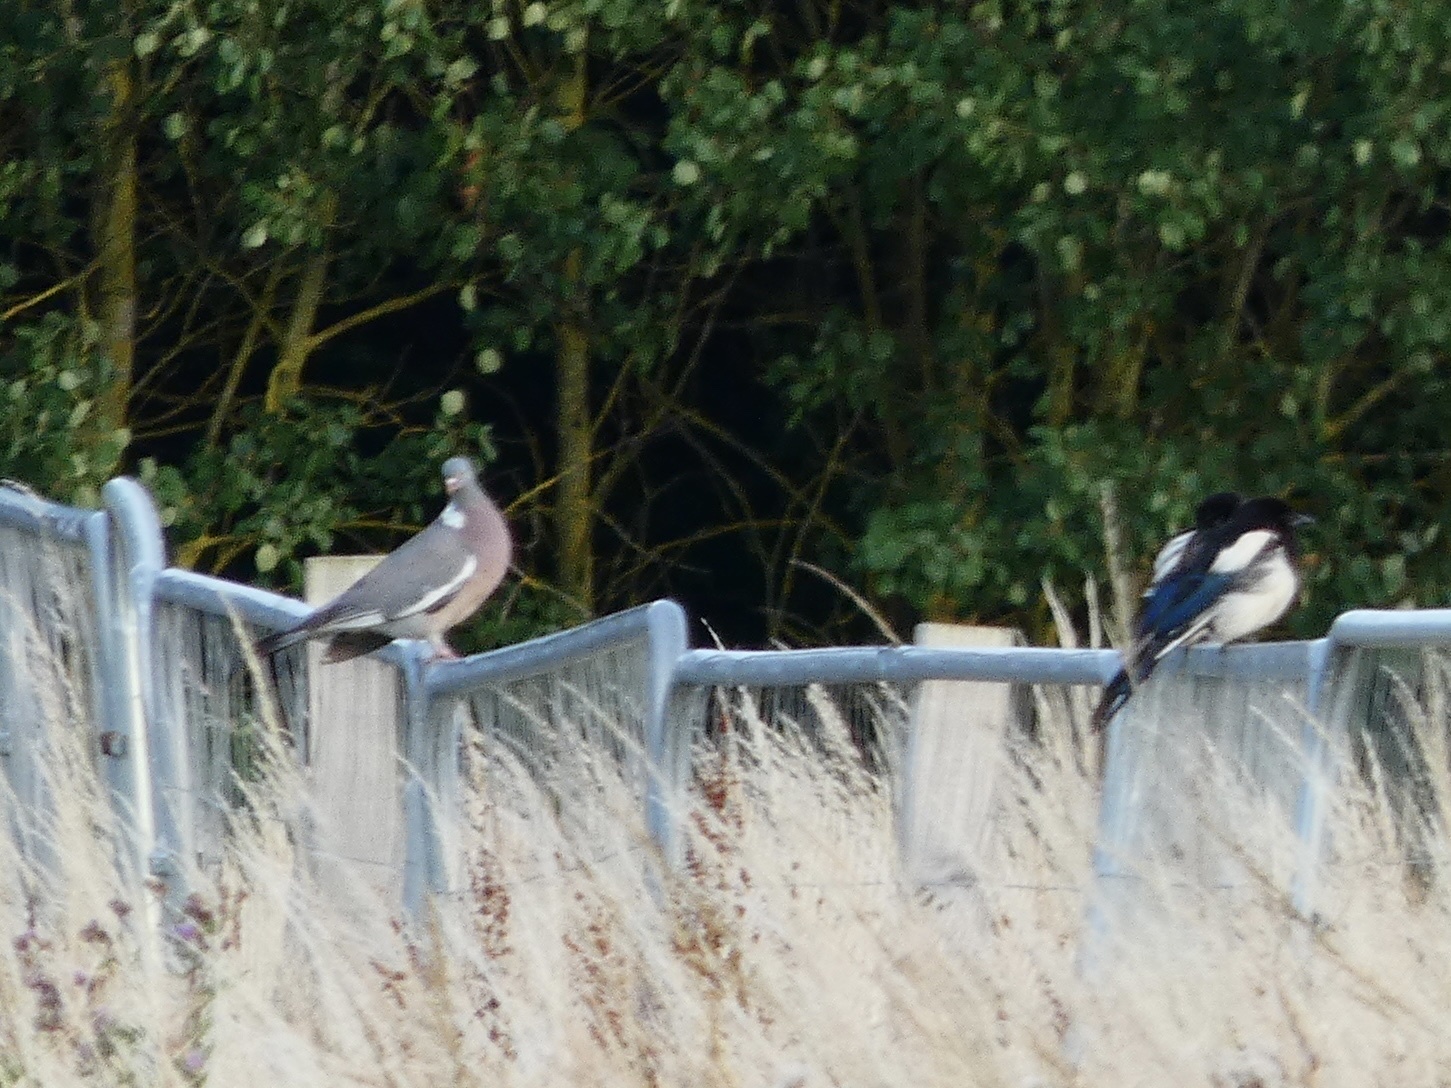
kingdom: Animalia
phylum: Chordata
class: Aves
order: Columbiformes
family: Columbidae
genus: Columba
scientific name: Columba palumbus
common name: Common wood pigeon
